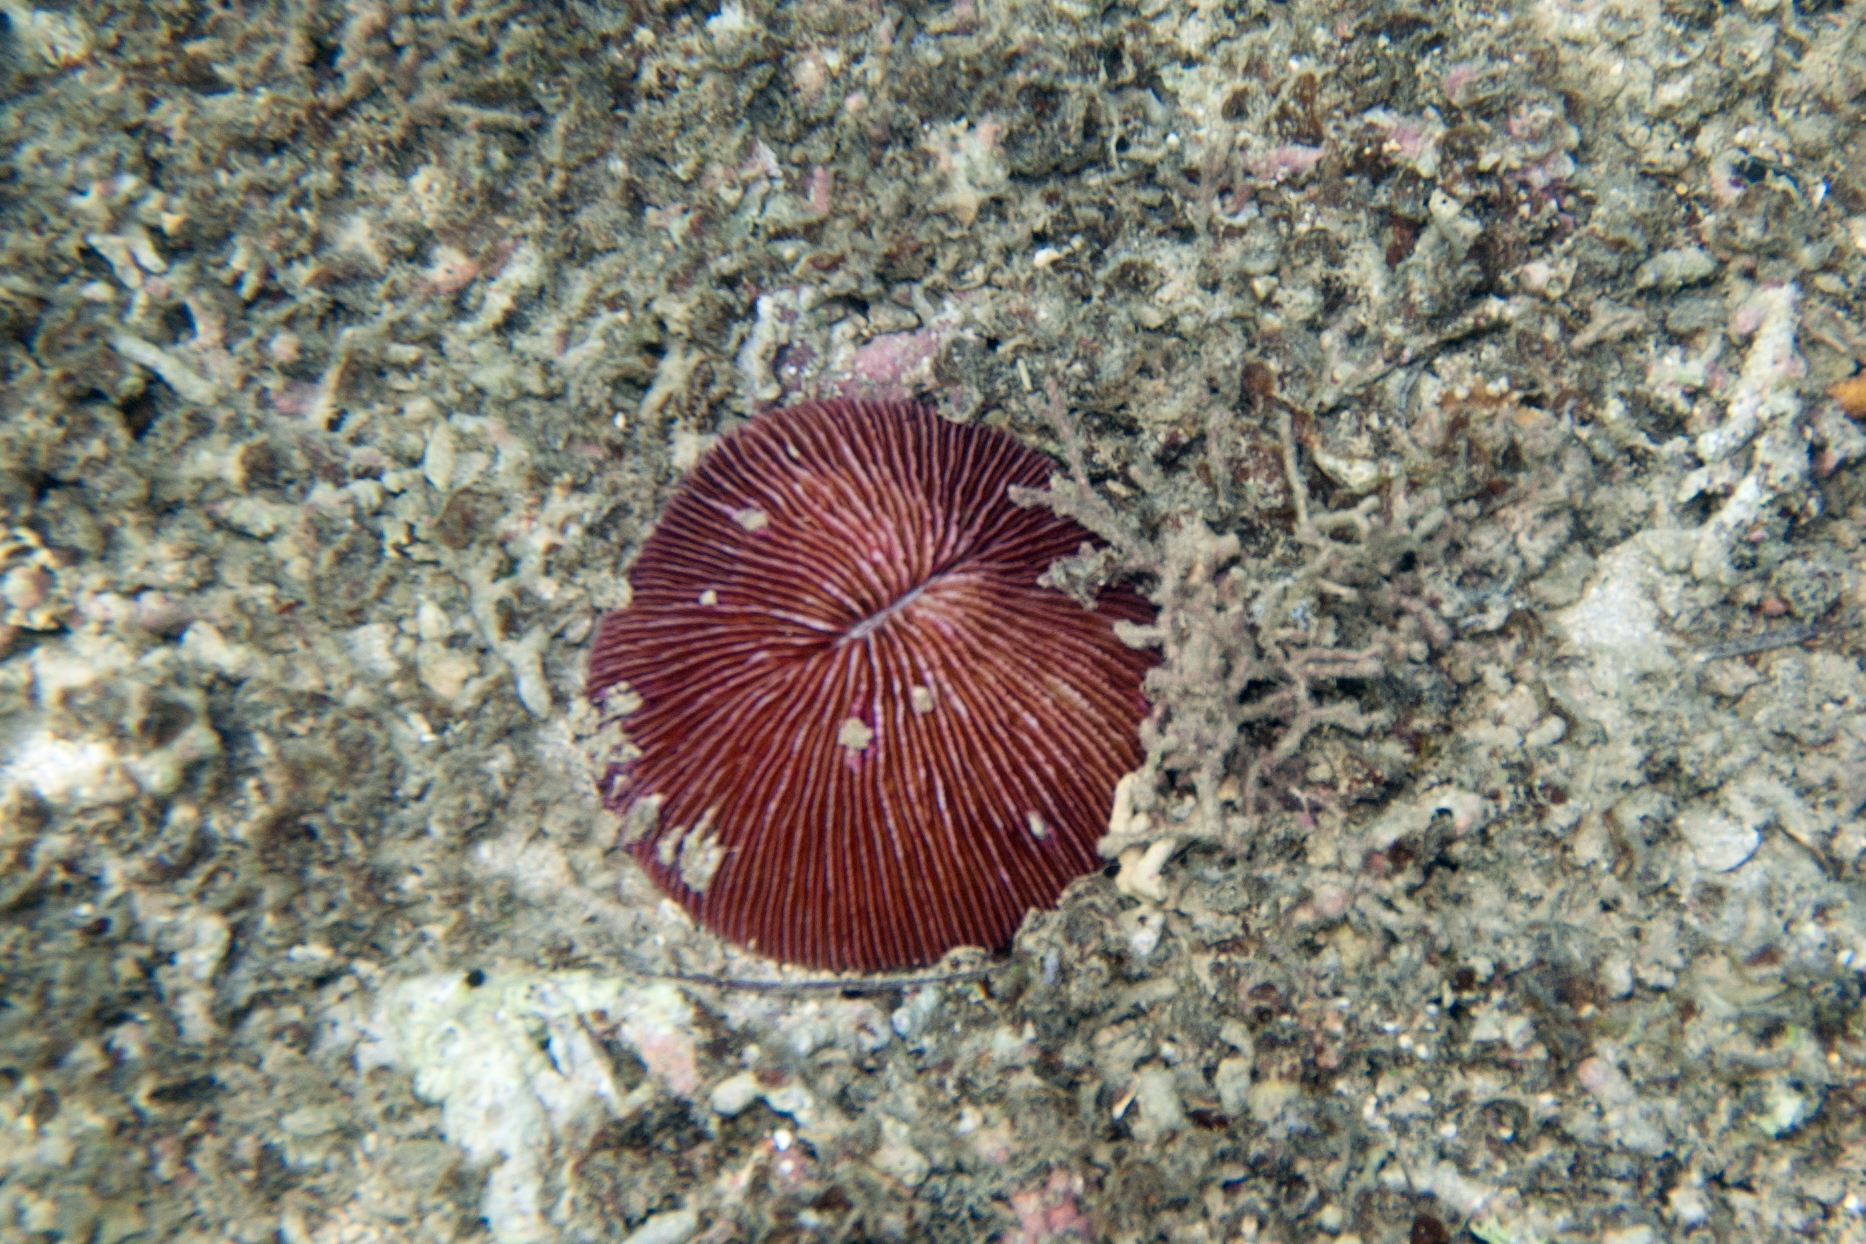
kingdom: Animalia
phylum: Cnidaria
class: Anthozoa
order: Scleractinia
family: Fungiidae
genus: Fungia
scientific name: Fungia fungites
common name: Mushroom coral
